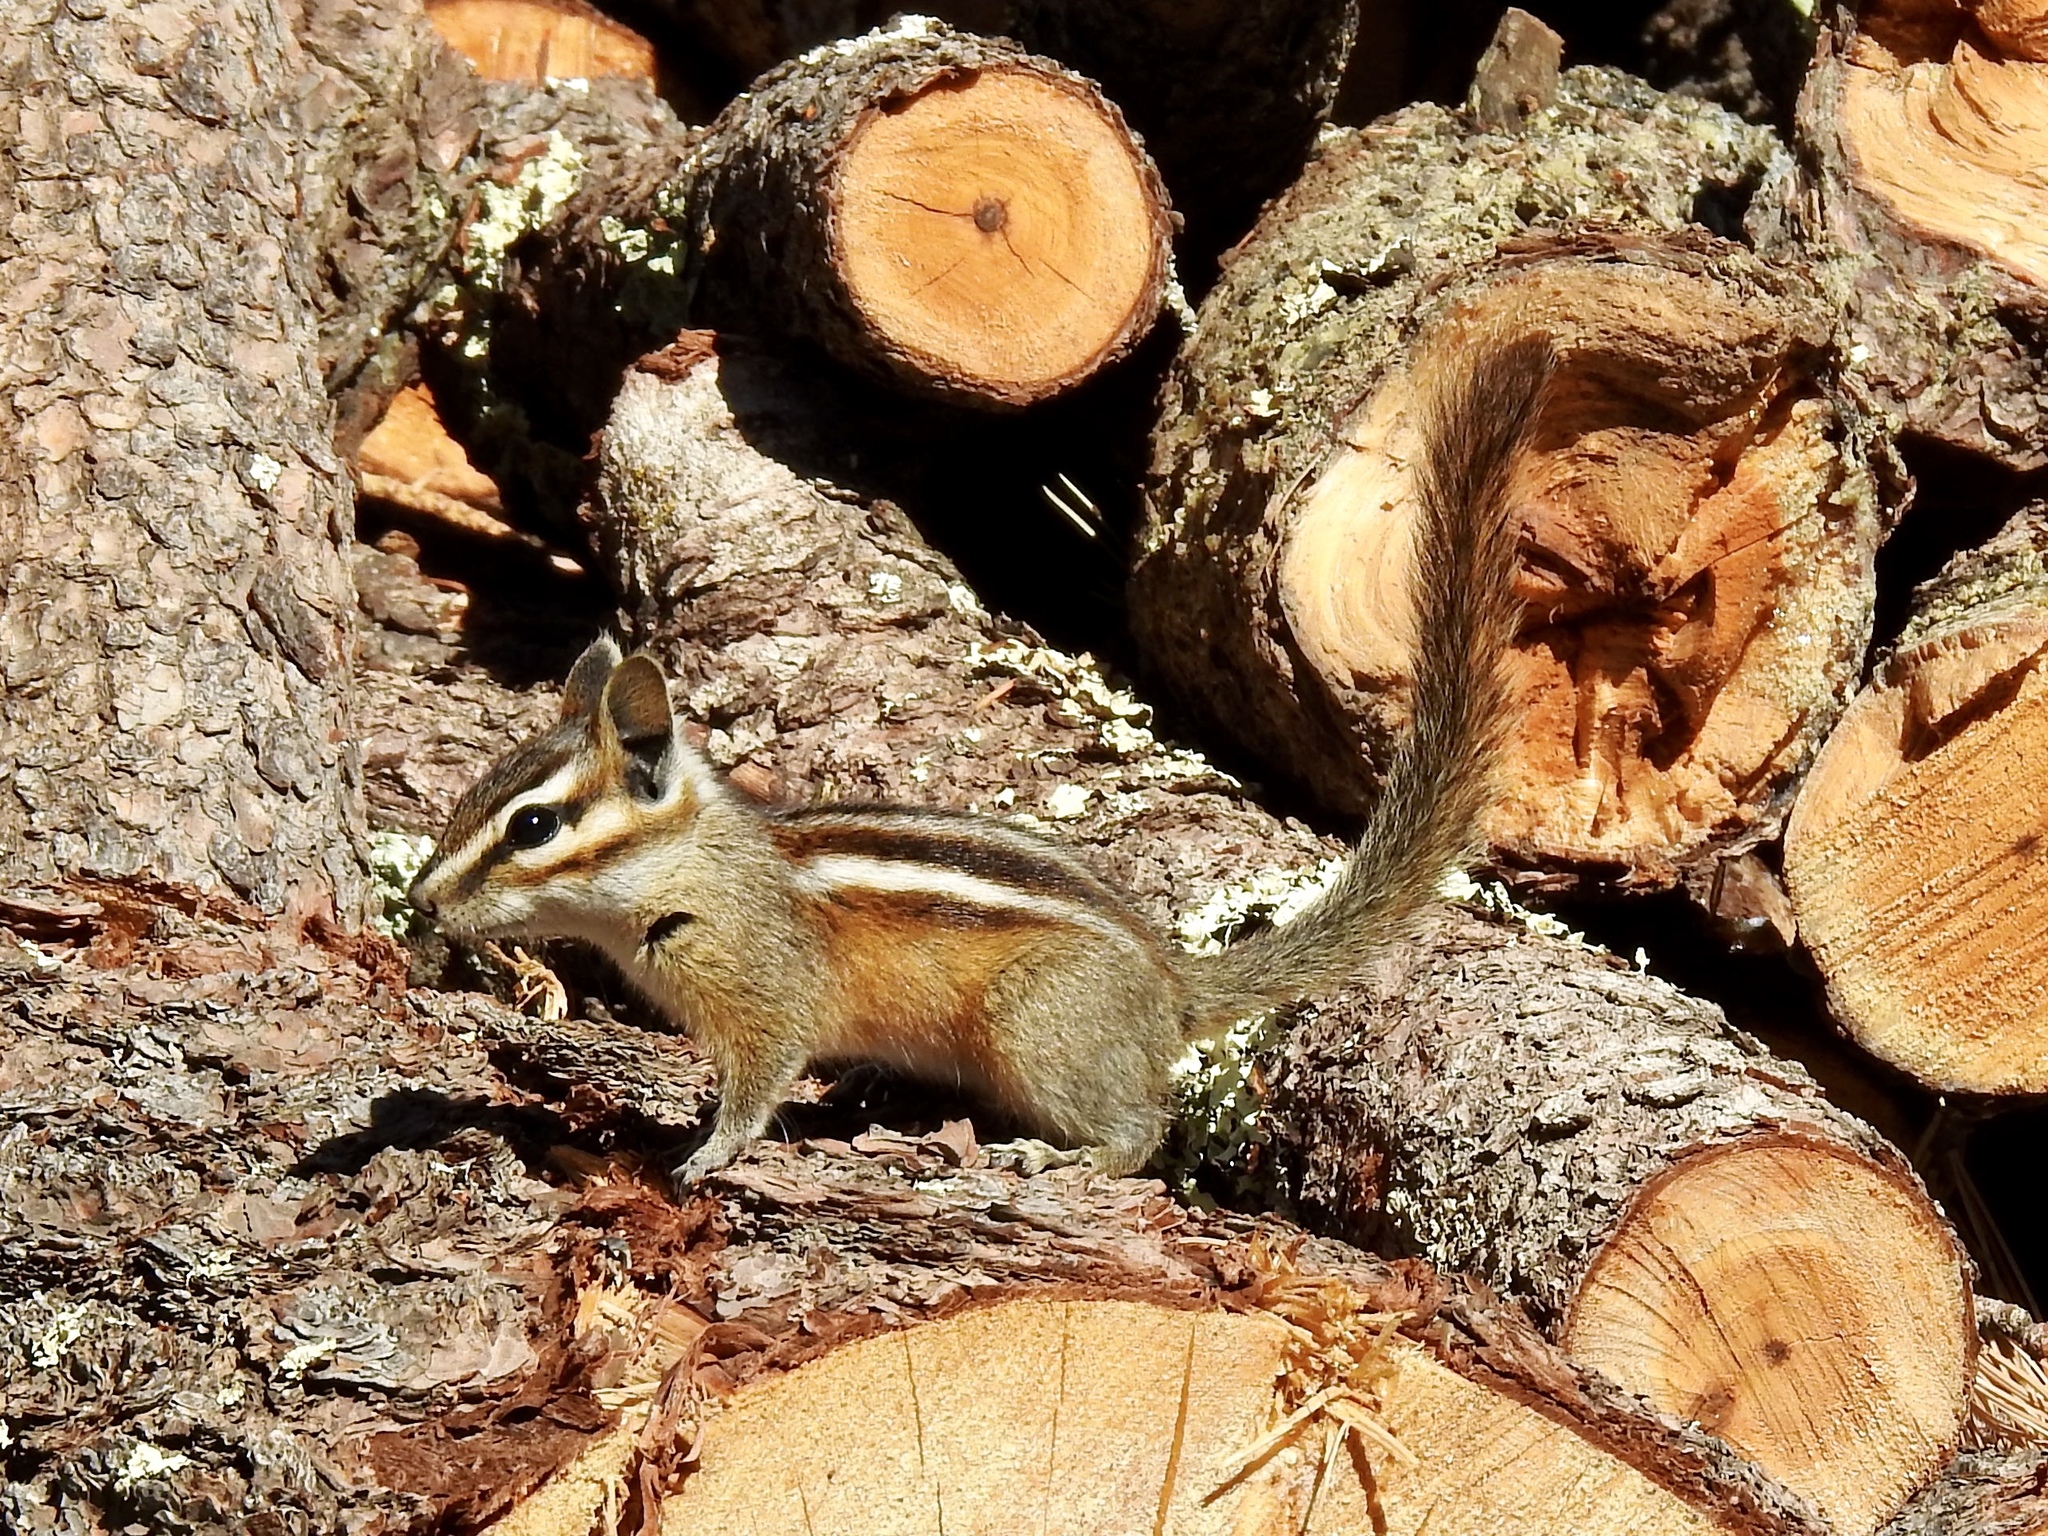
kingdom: Animalia
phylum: Chordata
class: Mammalia
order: Rodentia
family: Sciuridae
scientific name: Sciuridae
